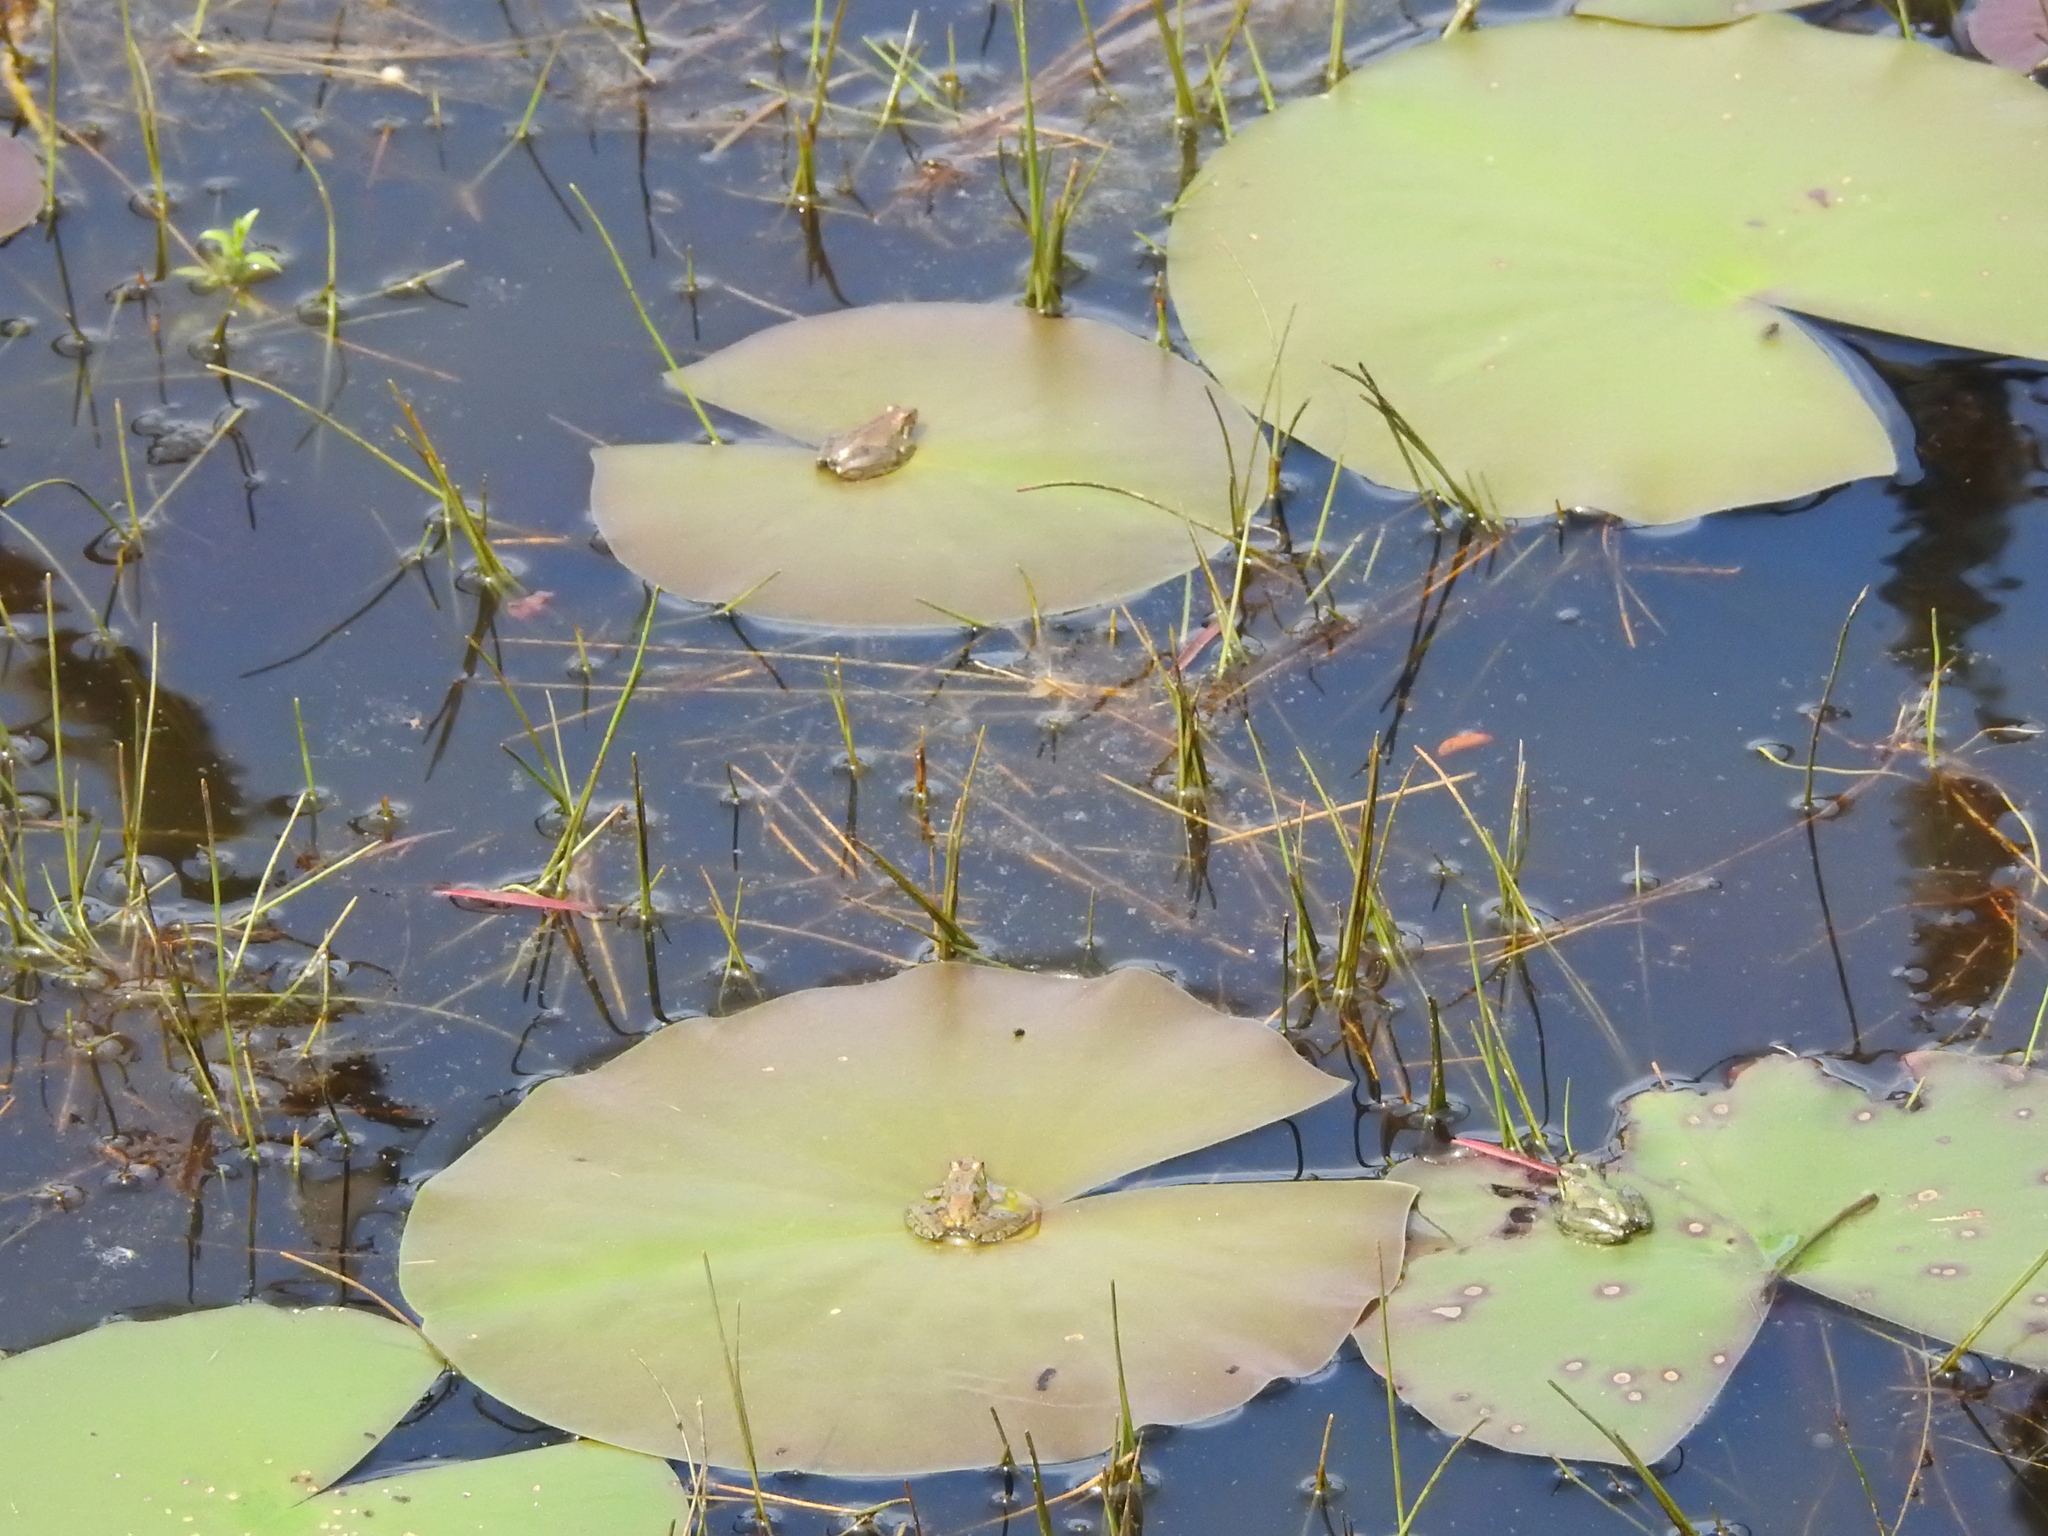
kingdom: Animalia
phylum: Chordata
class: Amphibia
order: Anura
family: Hylidae
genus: Acris
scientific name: Acris blanchardi
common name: Blanchard's cricket frog
